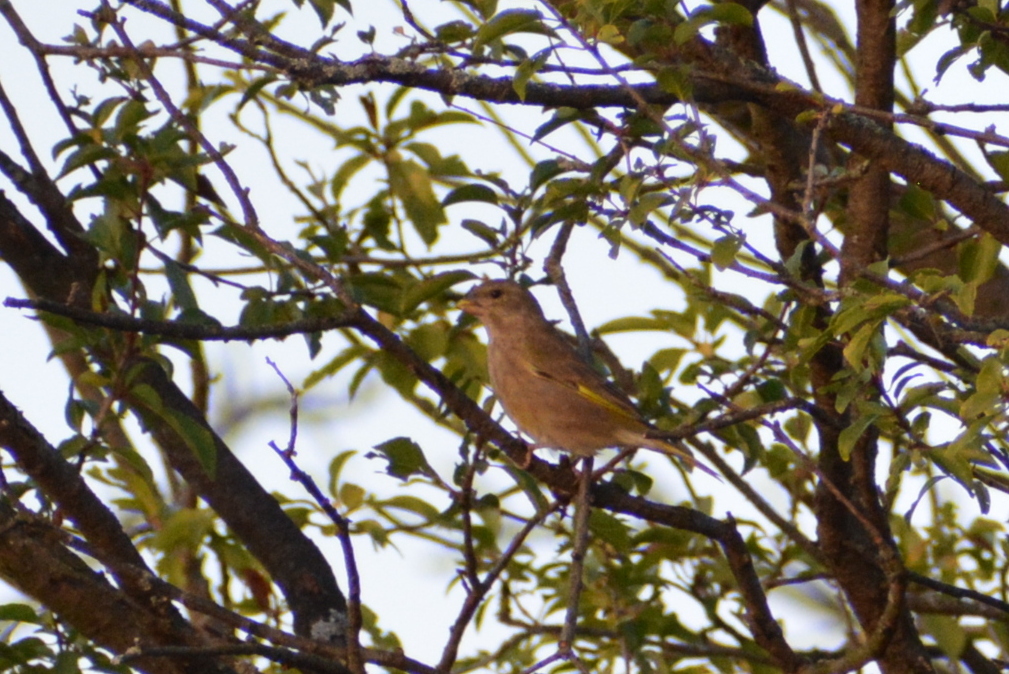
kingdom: Plantae
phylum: Tracheophyta
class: Liliopsida
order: Poales
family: Poaceae
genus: Chloris
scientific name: Chloris chloris
